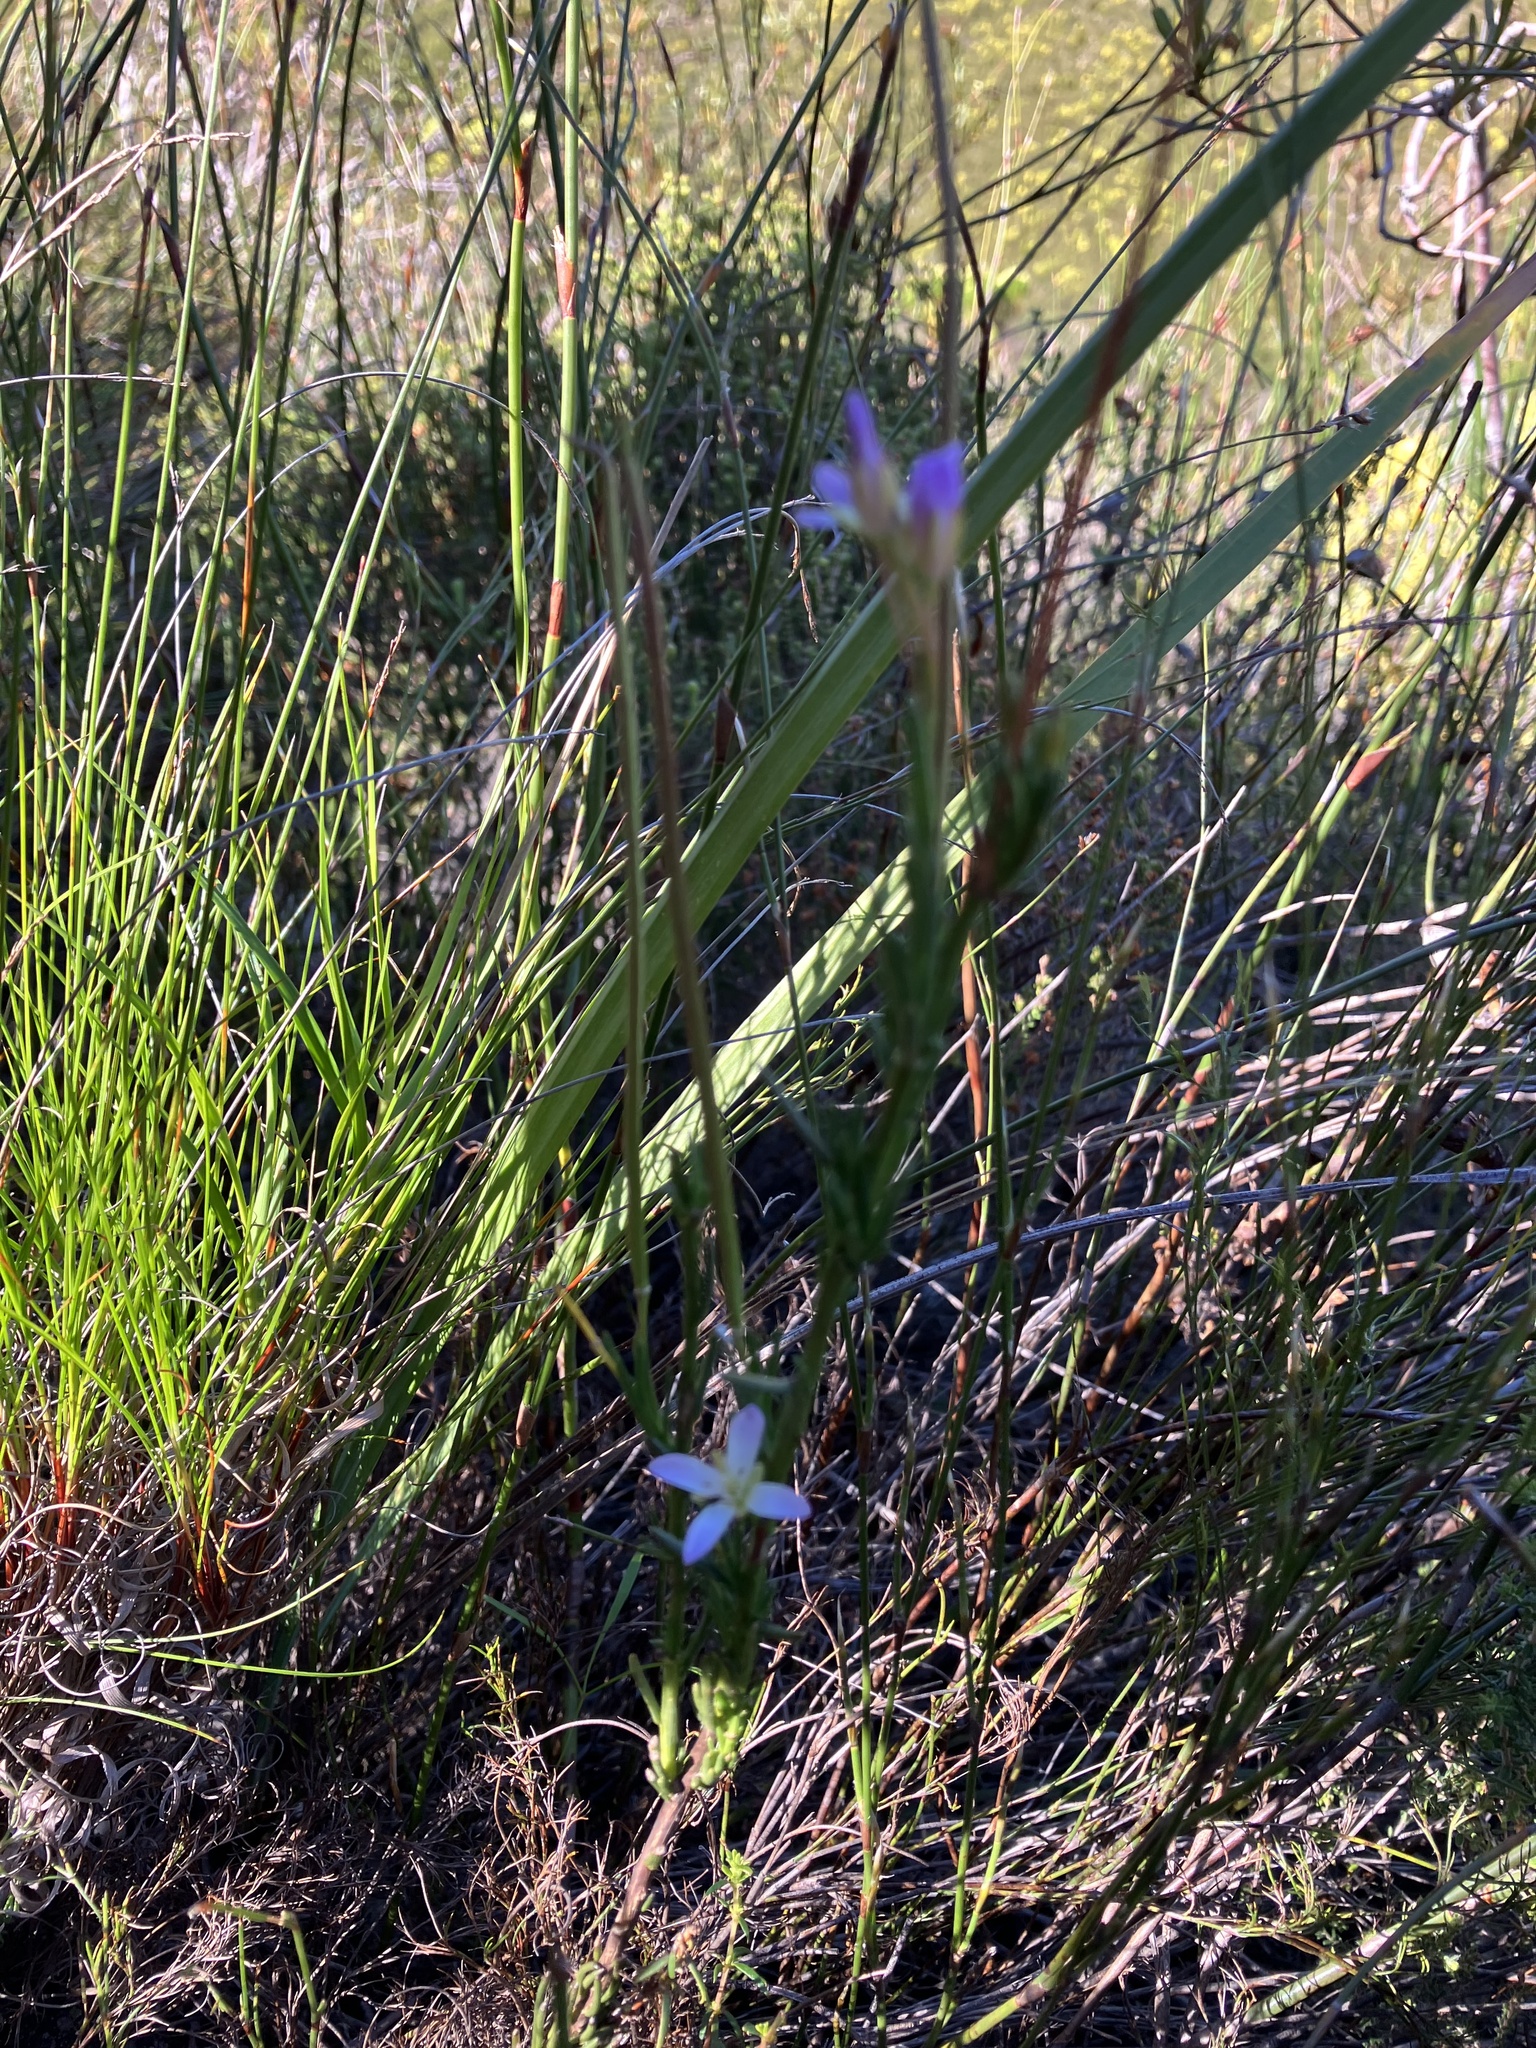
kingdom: Plantae
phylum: Tracheophyta
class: Magnoliopsida
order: Brassicales
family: Brassicaceae
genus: Heliophila
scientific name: Heliophila scoparia
